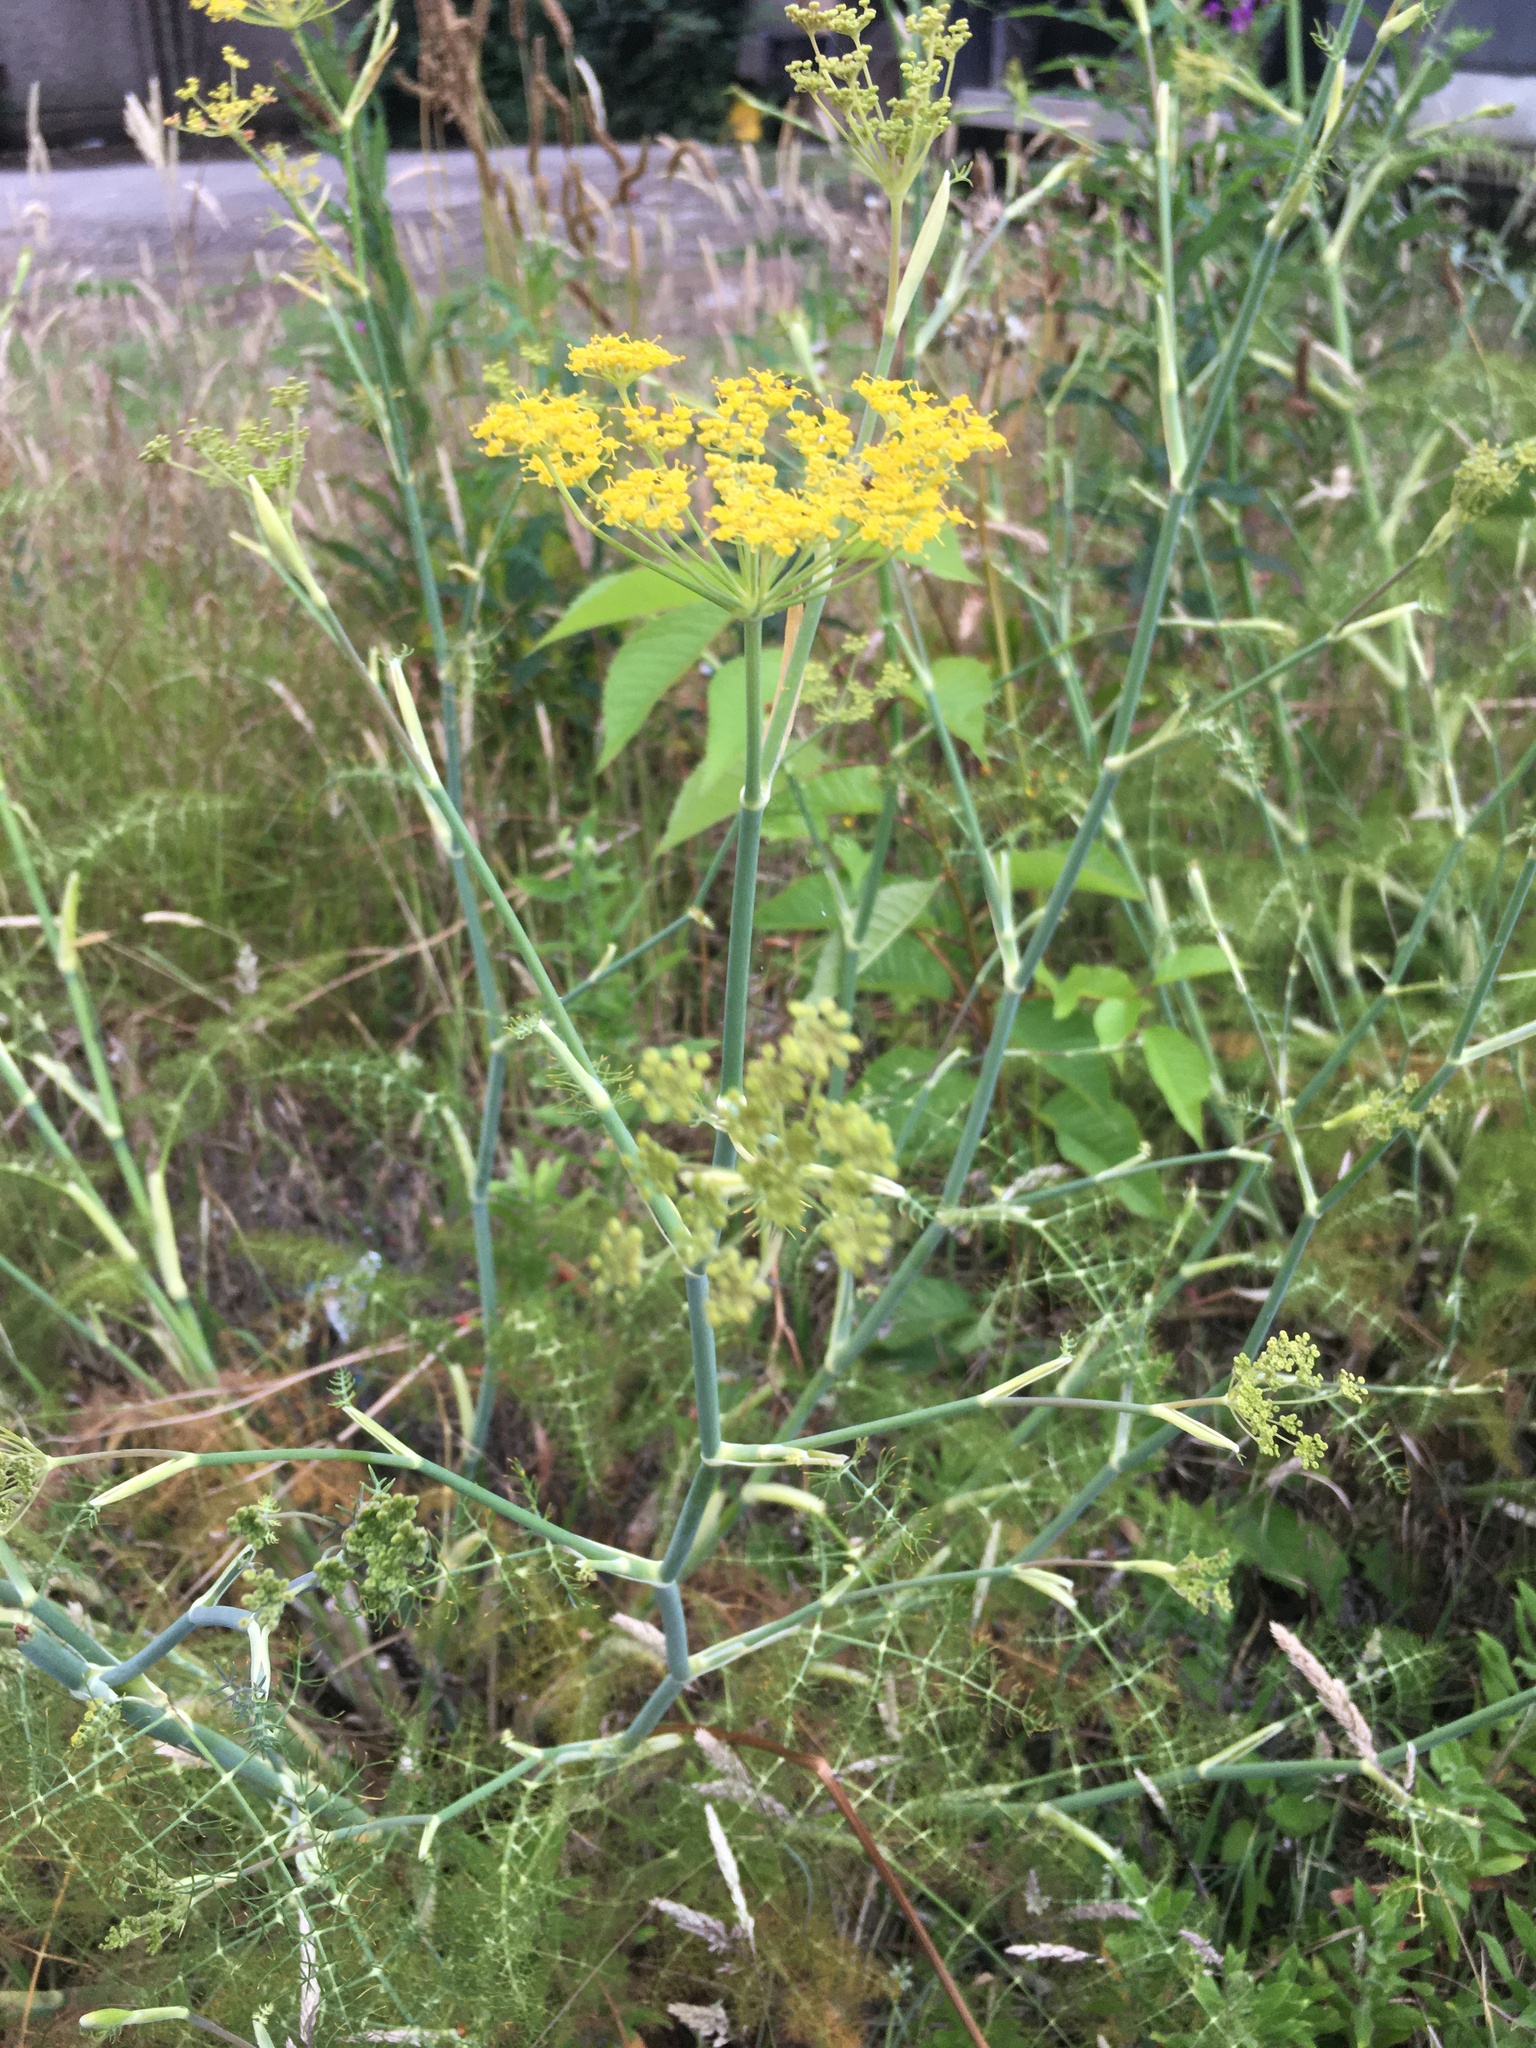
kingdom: Plantae
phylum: Tracheophyta
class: Magnoliopsida
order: Apiales
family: Apiaceae
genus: Foeniculum
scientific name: Foeniculum vulgare
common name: Fennel
